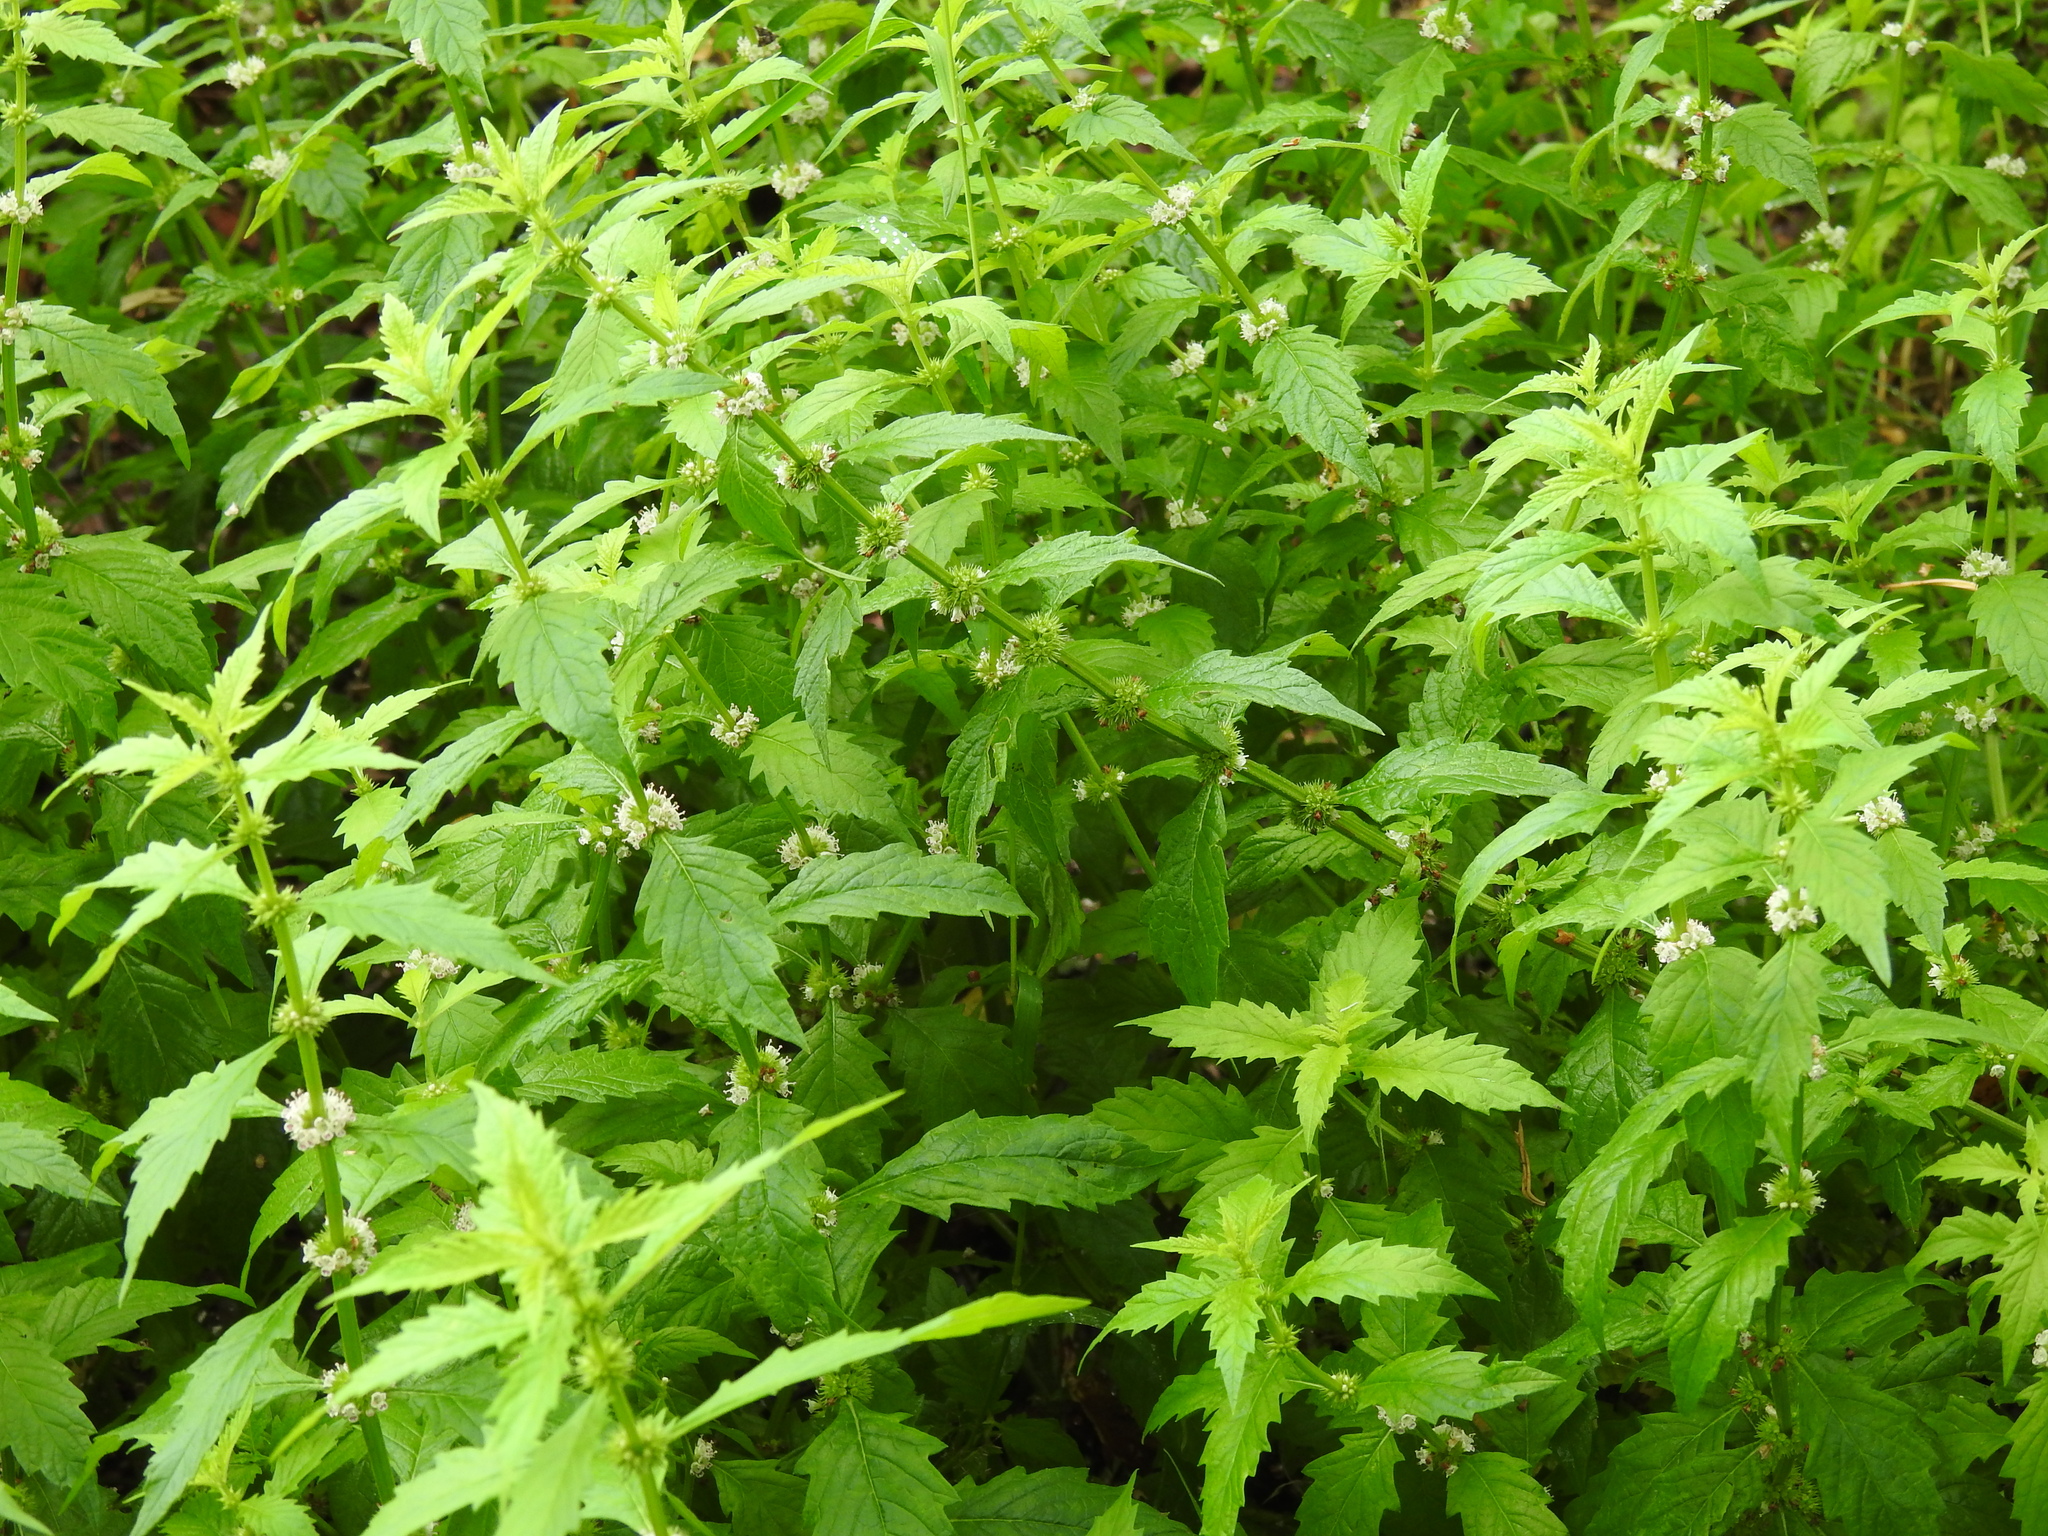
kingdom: Plantae
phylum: Tracheophyta
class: Magnoliopsida
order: Lamiales
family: Lamiaceae
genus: Lycopus
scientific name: Lycopus europaeus
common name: European bugleweed
